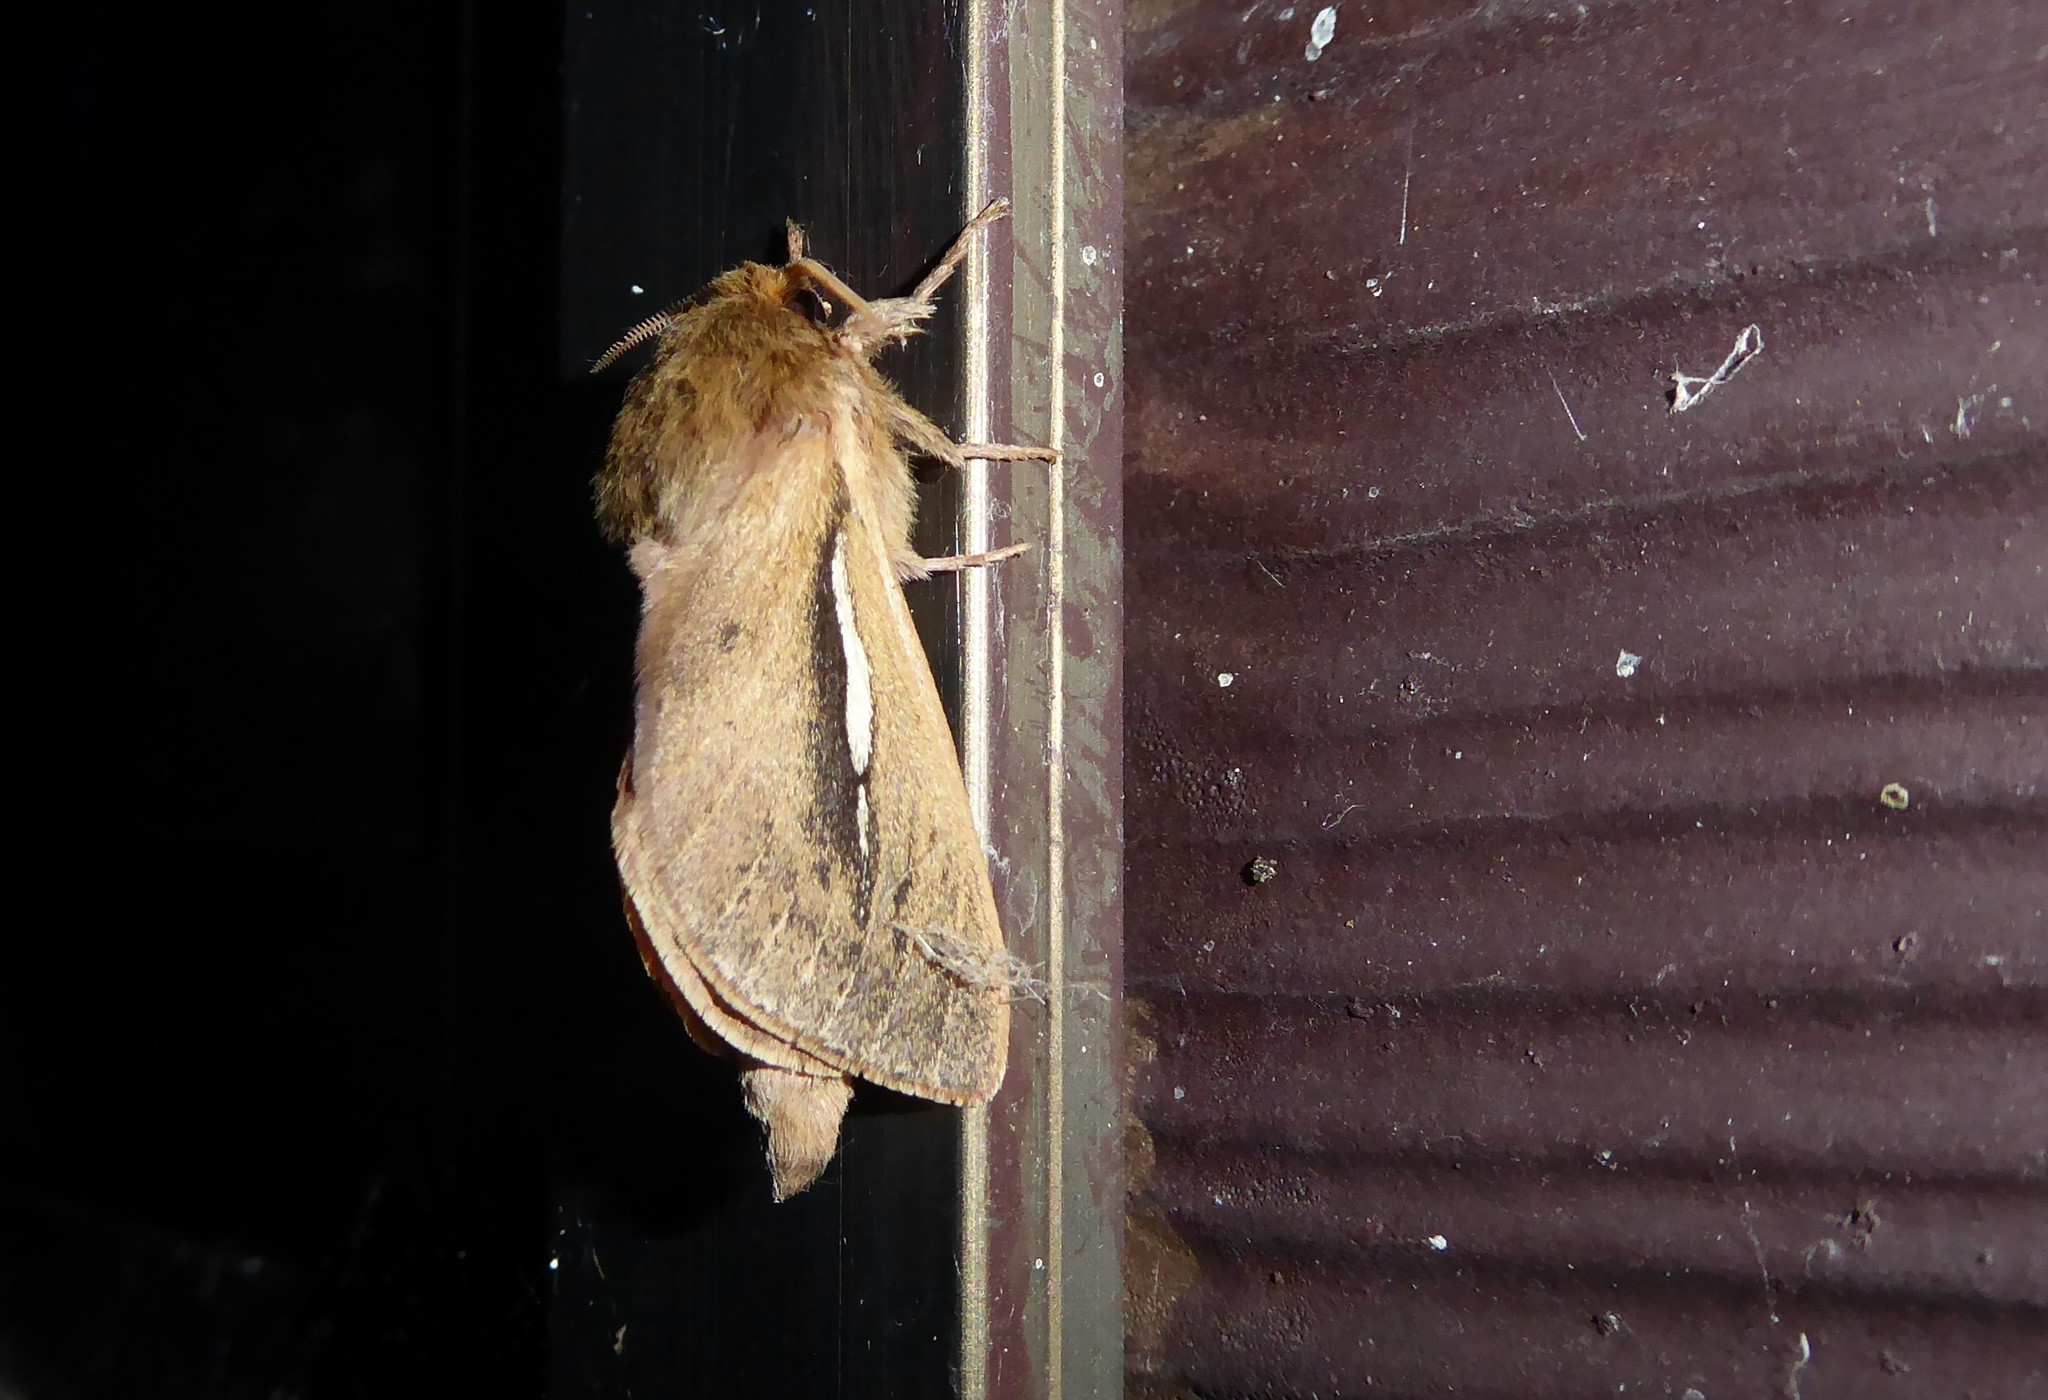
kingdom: Animalia
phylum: Arthropoda
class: Insecta
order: Lepidoptera
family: Hepialidae
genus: Wiseana
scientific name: Wiseana umbraculatus
